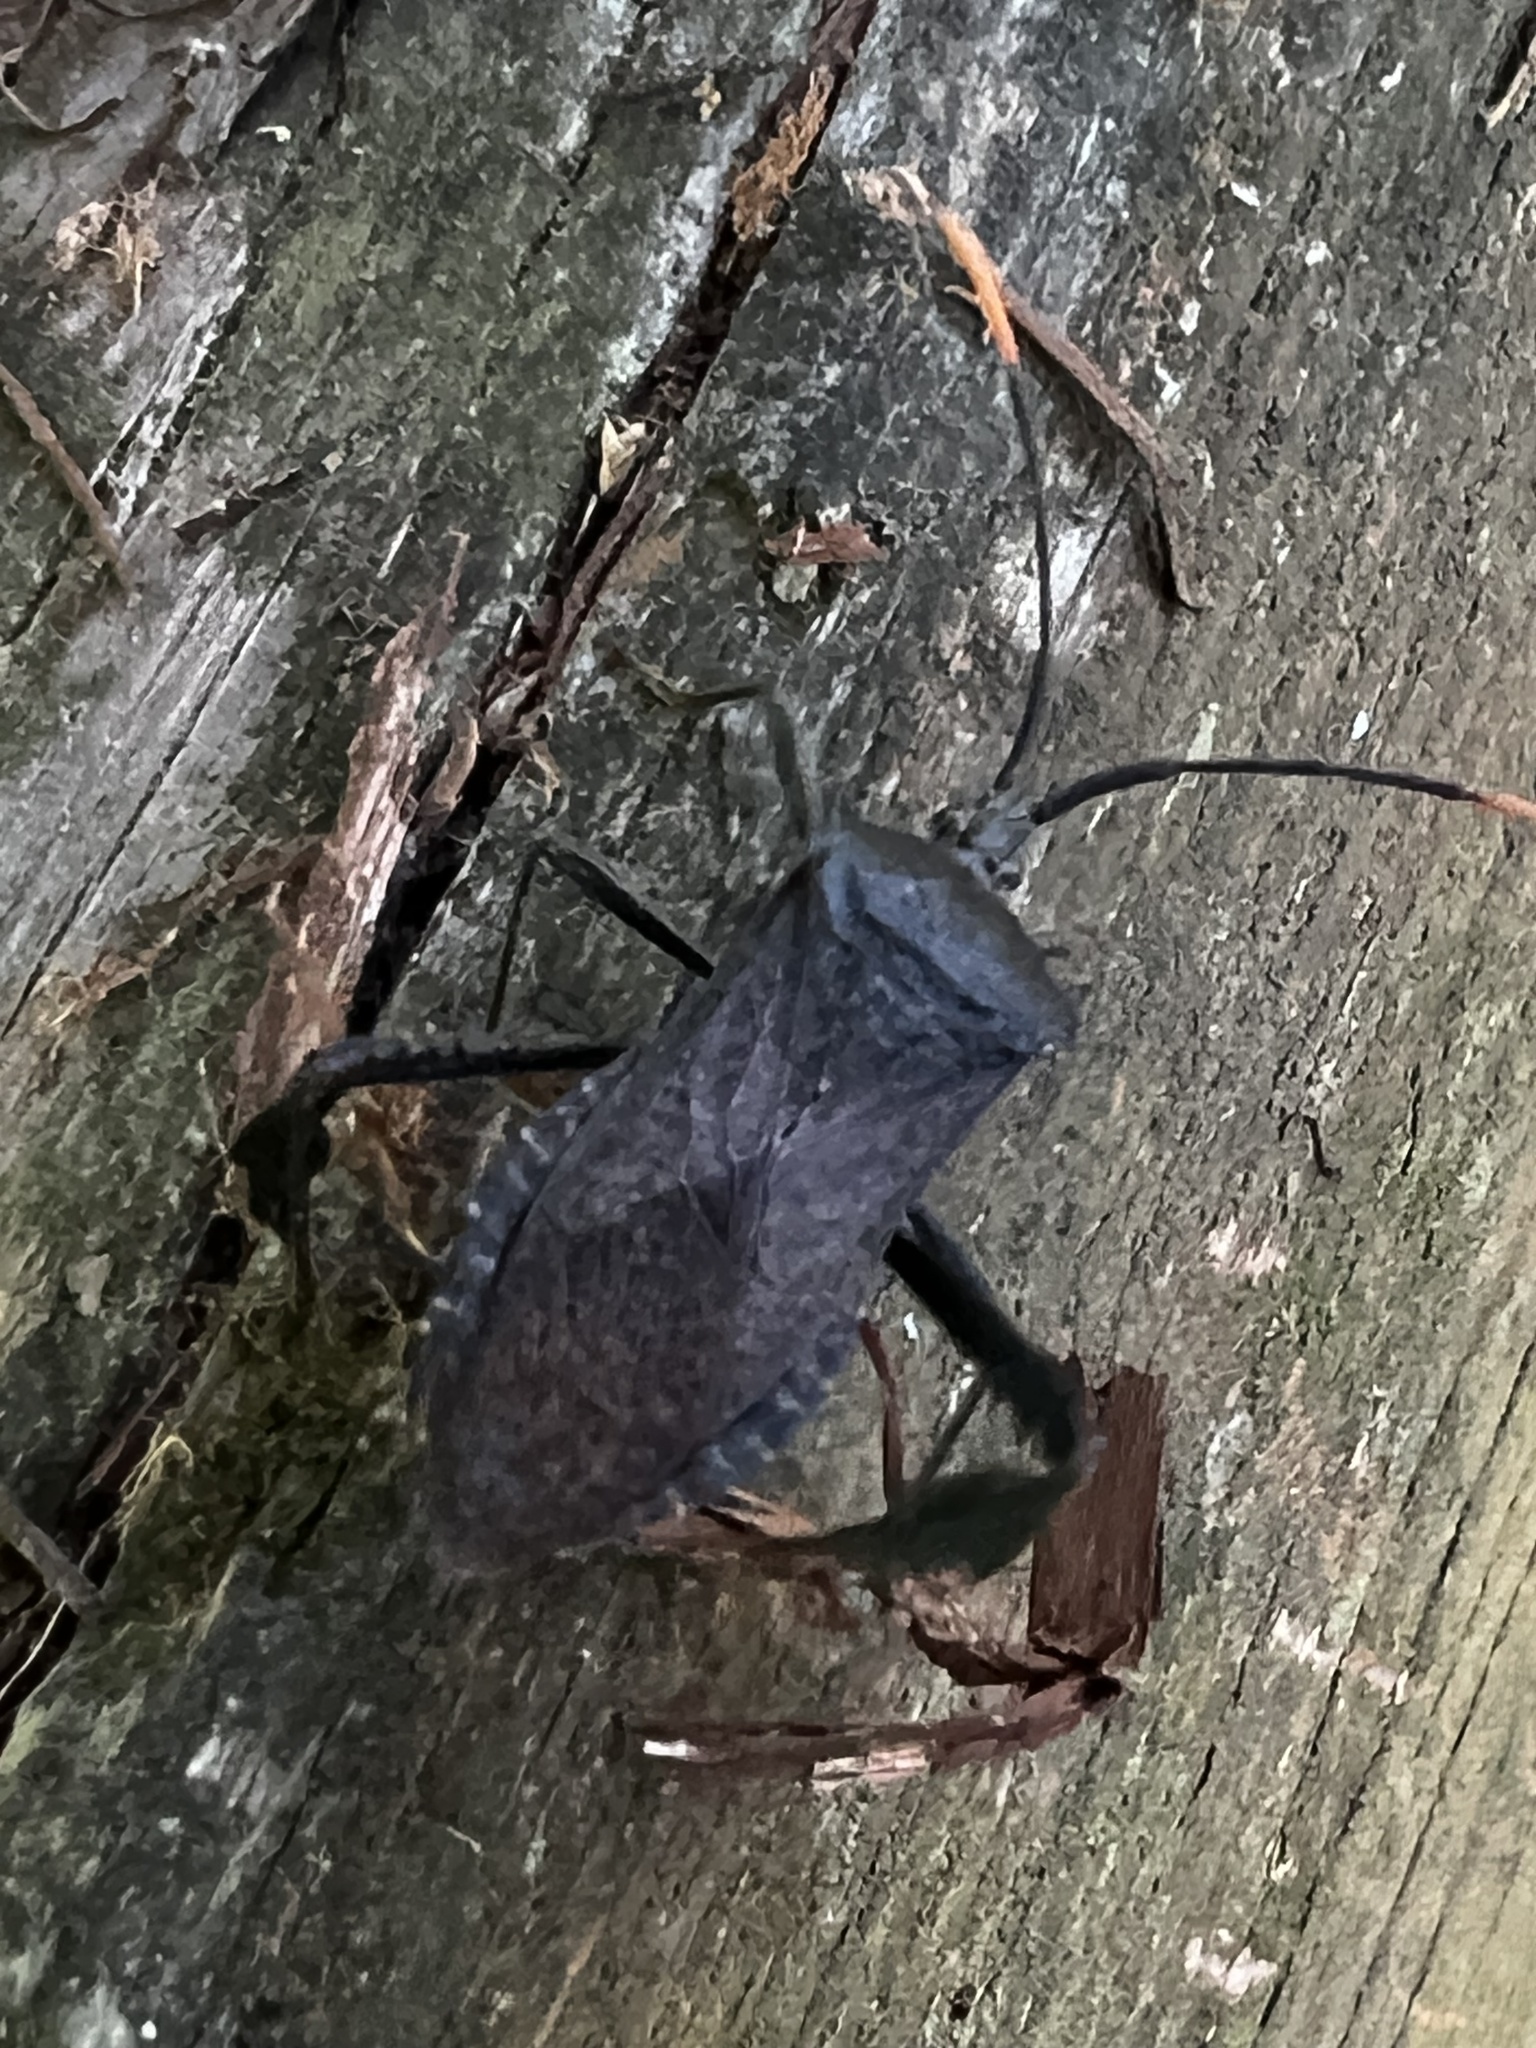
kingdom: Animalia
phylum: Arthropoda
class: Insecta
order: Hemiptera
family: Coreidae
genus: Acanthocephala
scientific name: Acanthocephala terminalis
